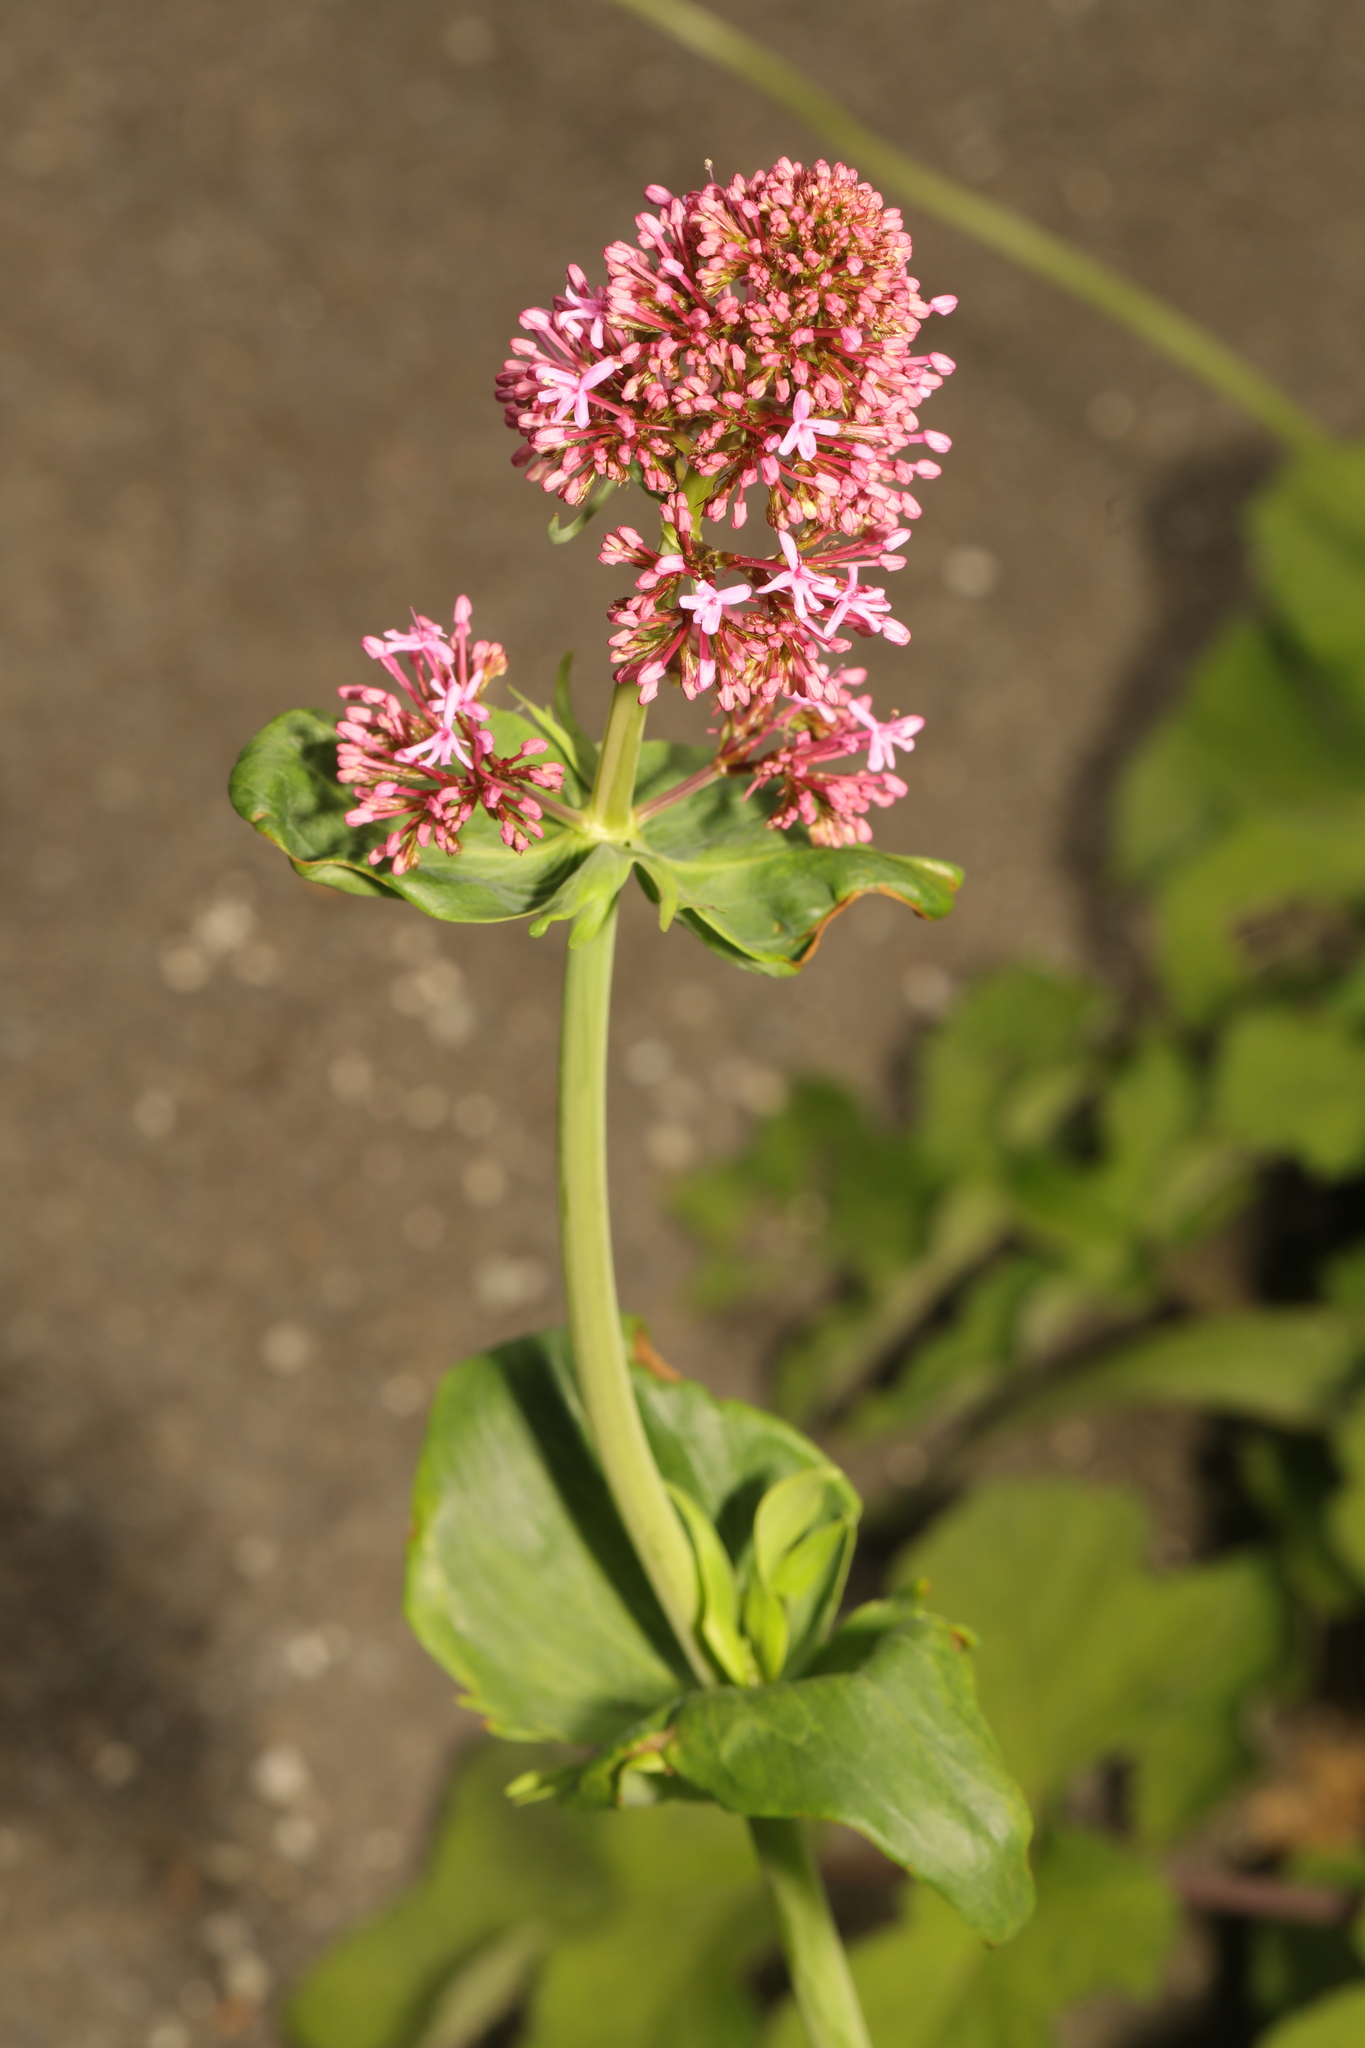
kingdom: Plantae
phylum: Tracheophyta
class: Magnoliopsida
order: Dipsacales
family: Caprifoliaceae
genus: Centranthus
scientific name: Centranthus ruber
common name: Red valerian
